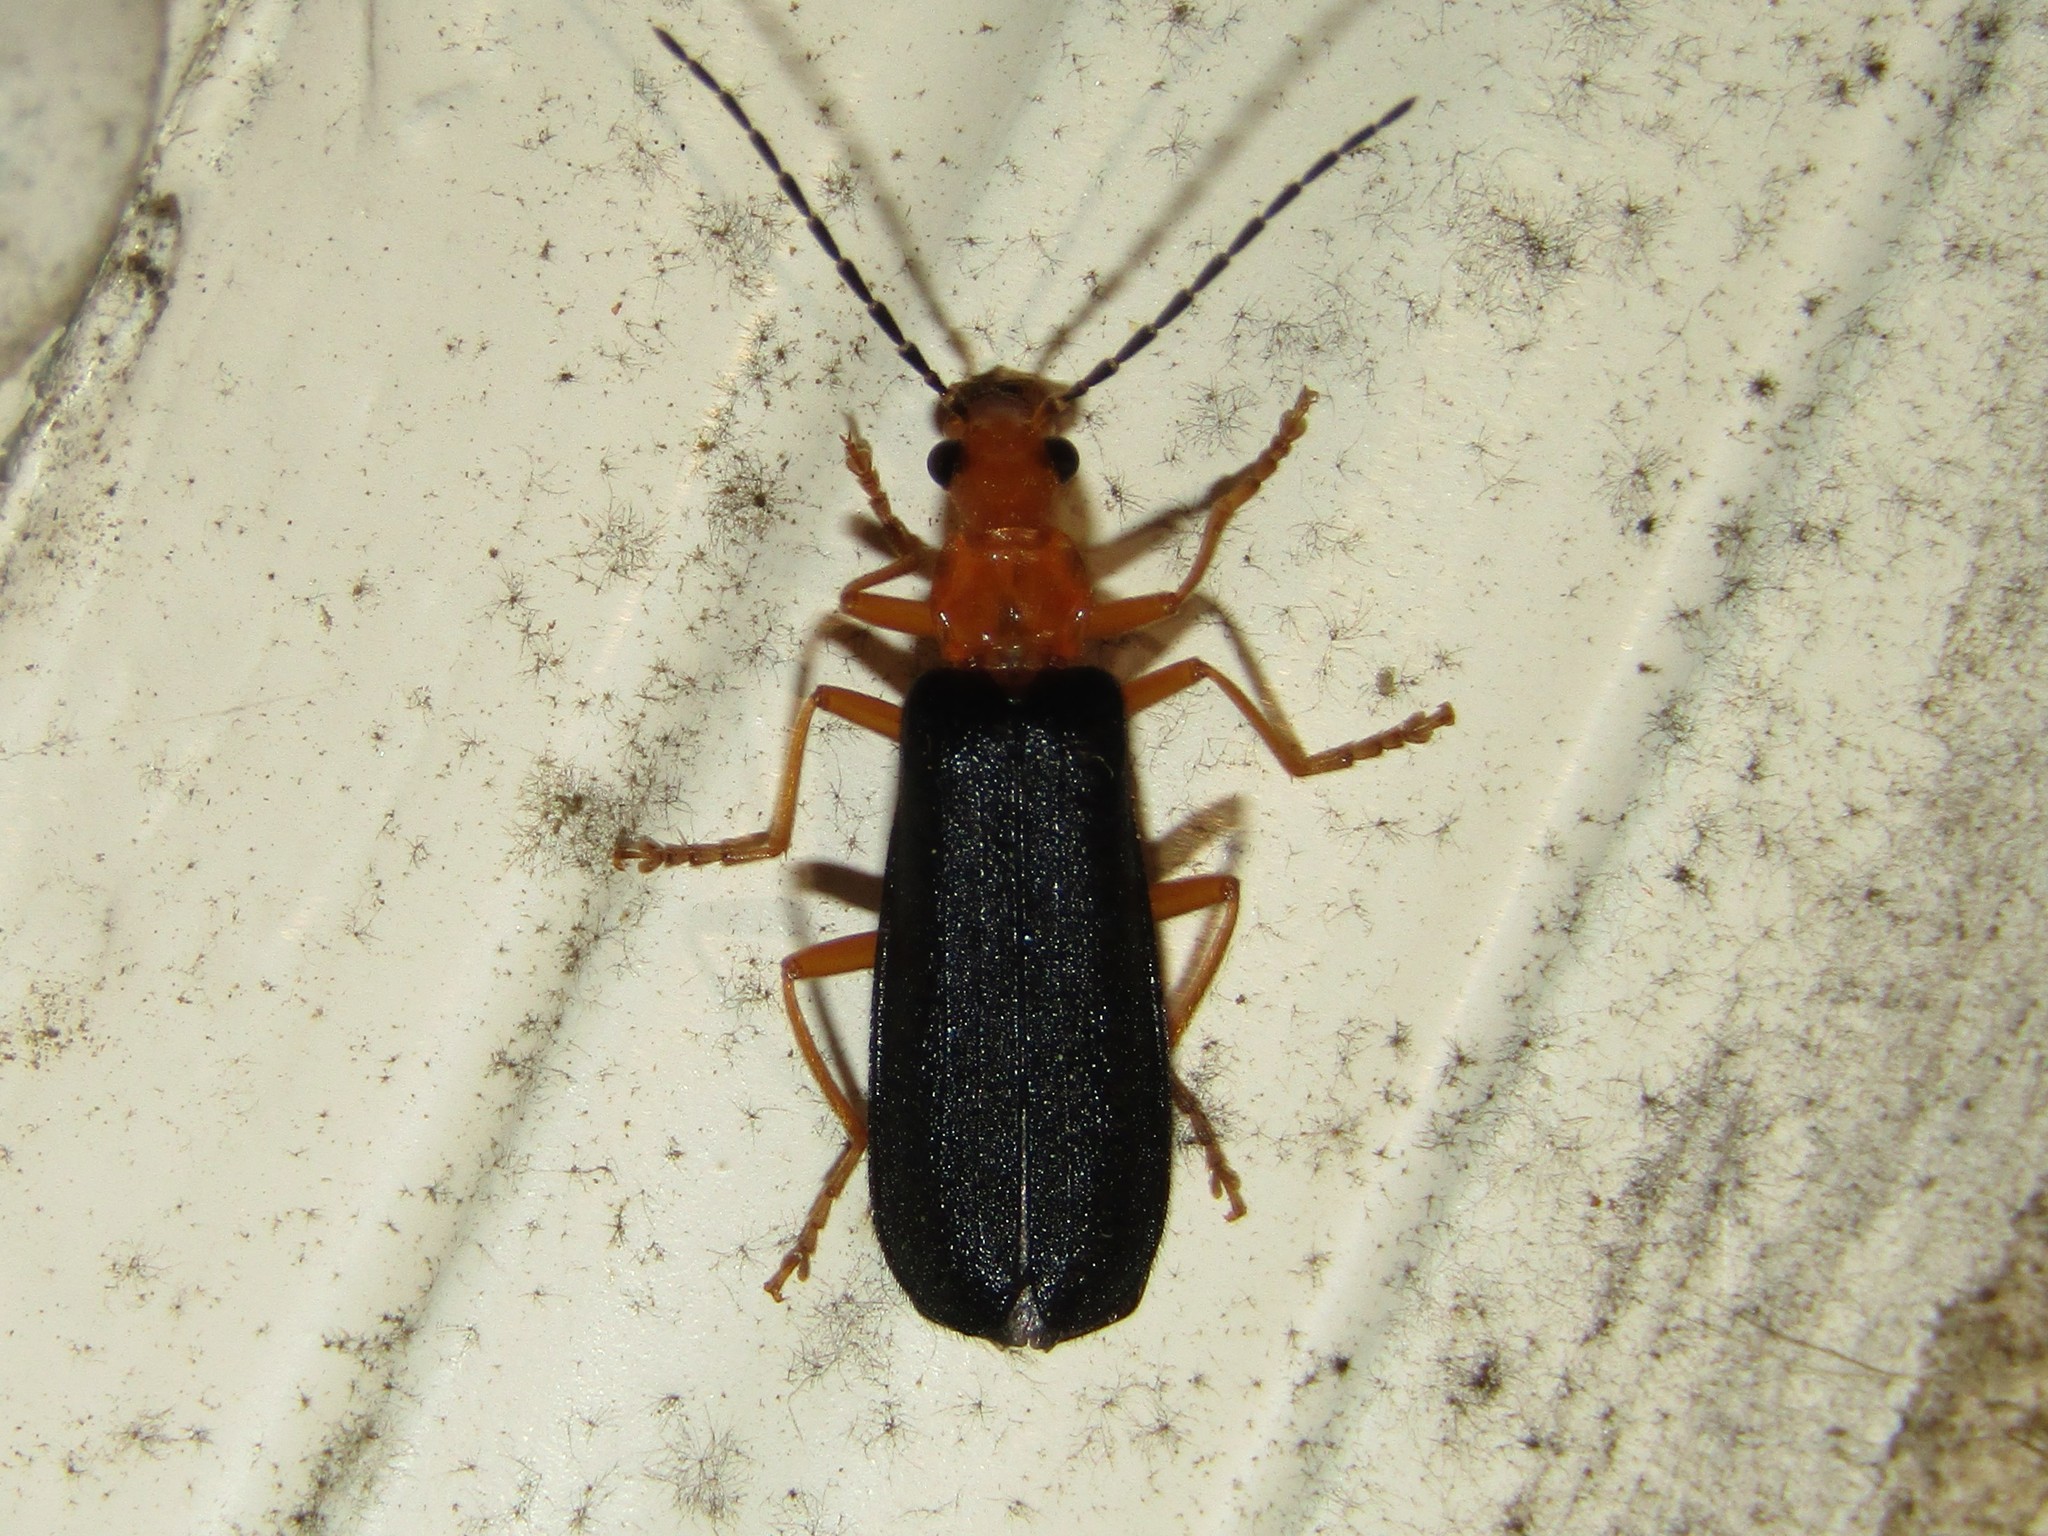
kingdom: Animalia
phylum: Arthropoda
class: Insecta
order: Coleoptera
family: Cantharidae
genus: Podabrus
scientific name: Podabrus fayi
